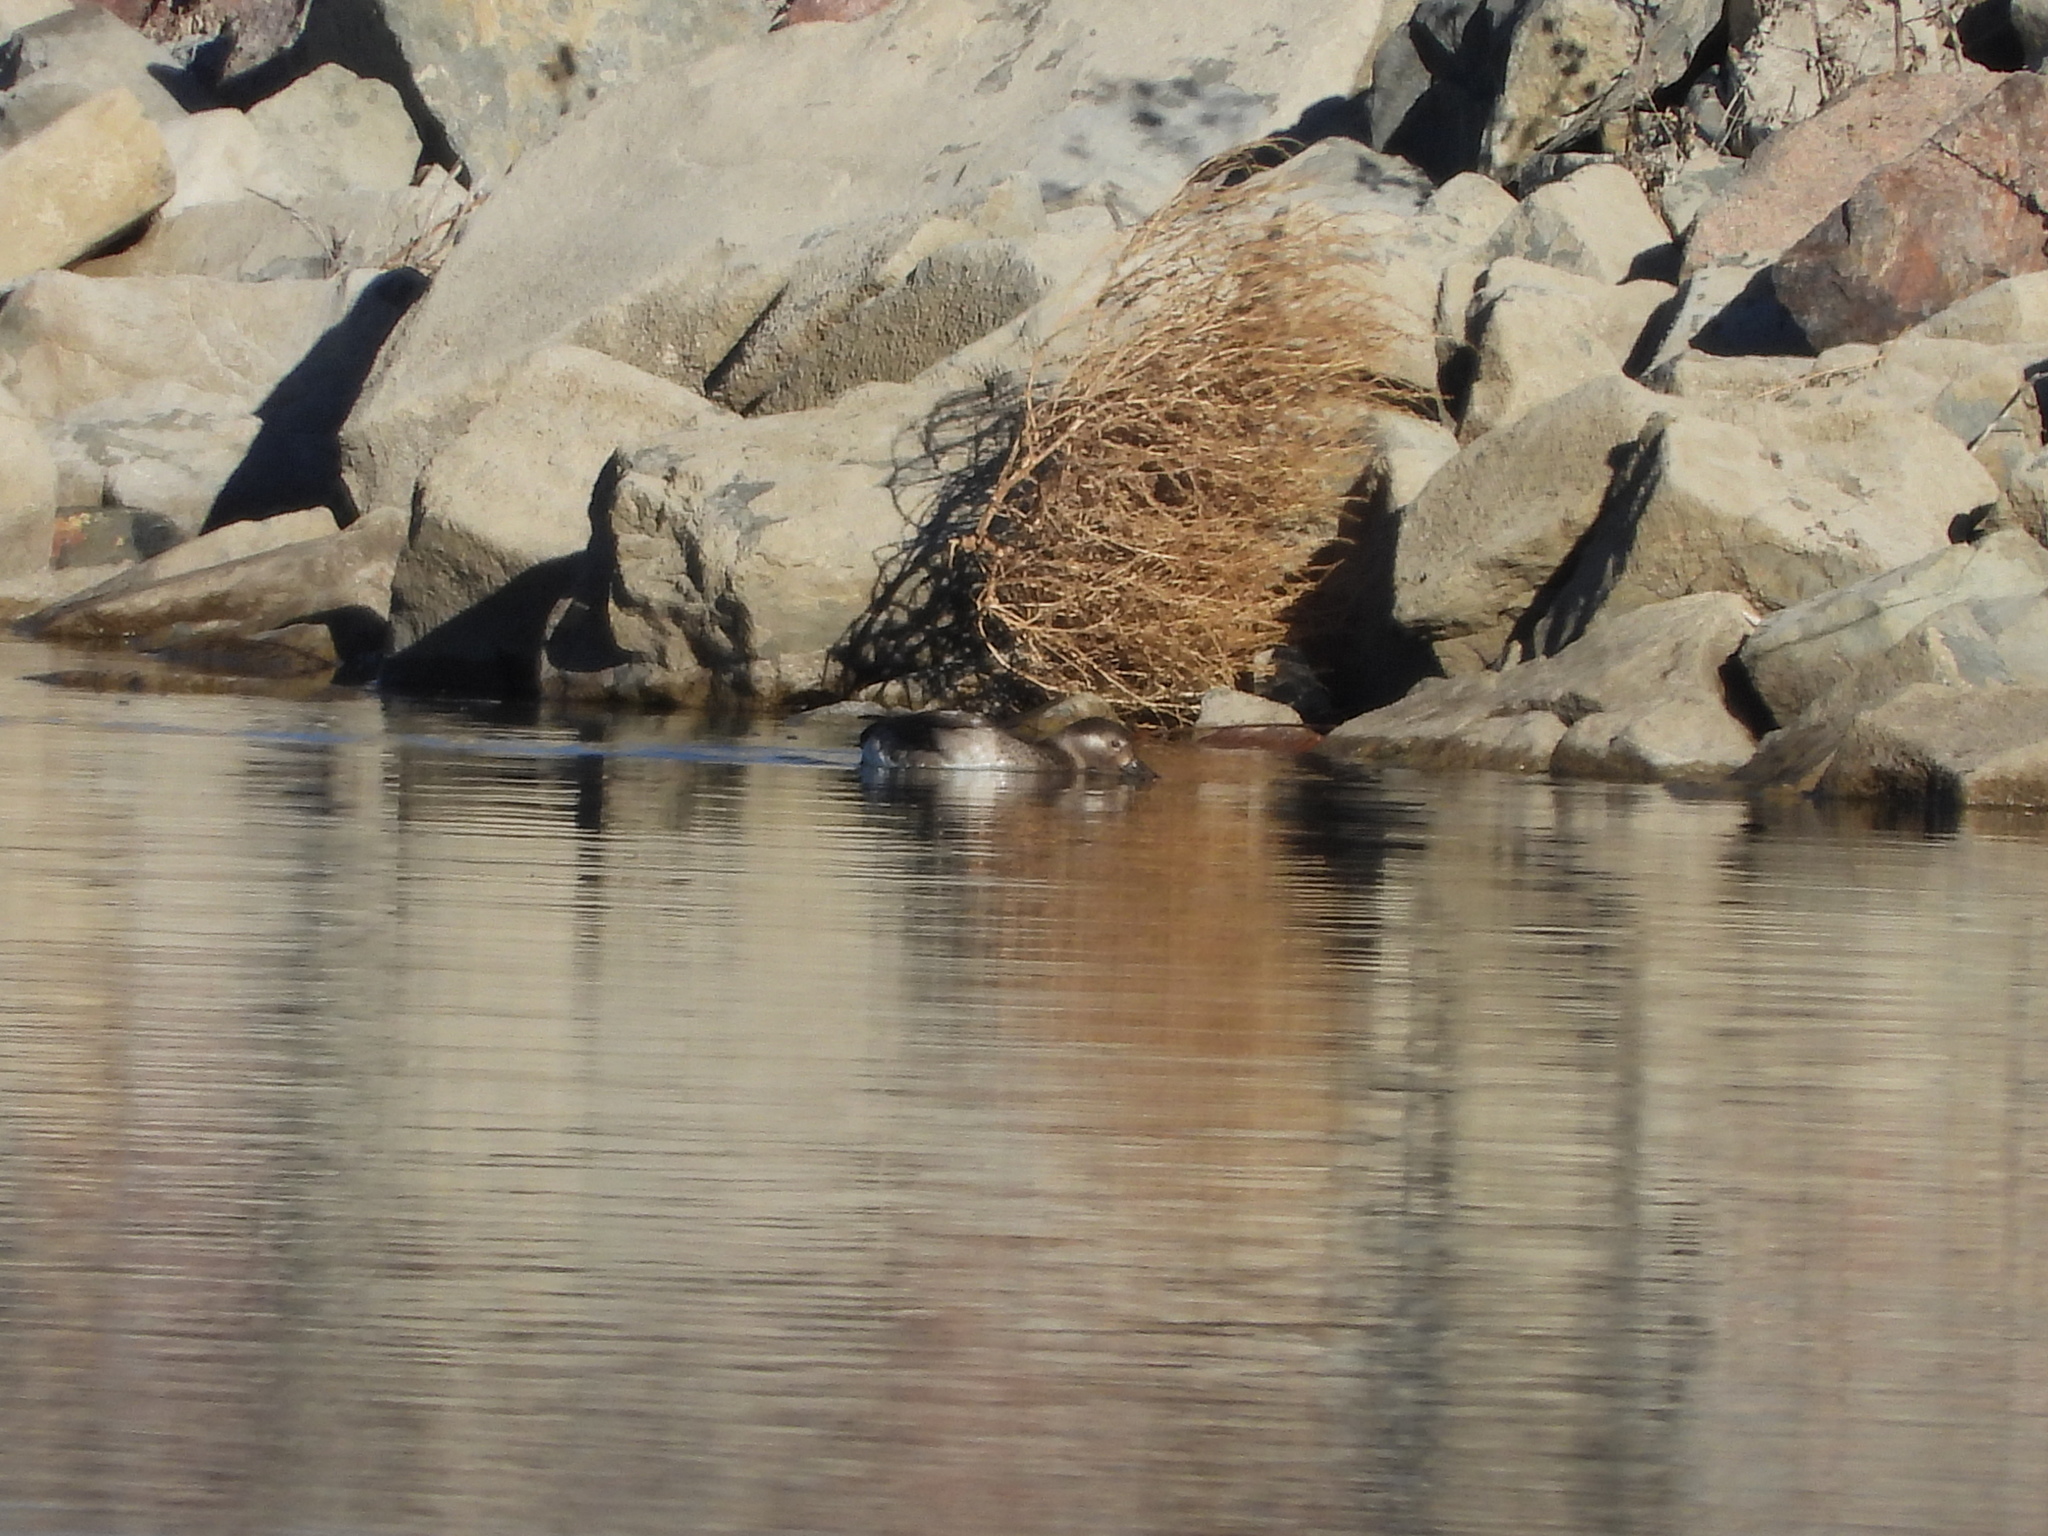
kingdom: Animalia
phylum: Chordata
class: Aves
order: Anseriformes
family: Anatidae
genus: Clangula
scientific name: Clangula hyemalis
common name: Long-tailed duck
